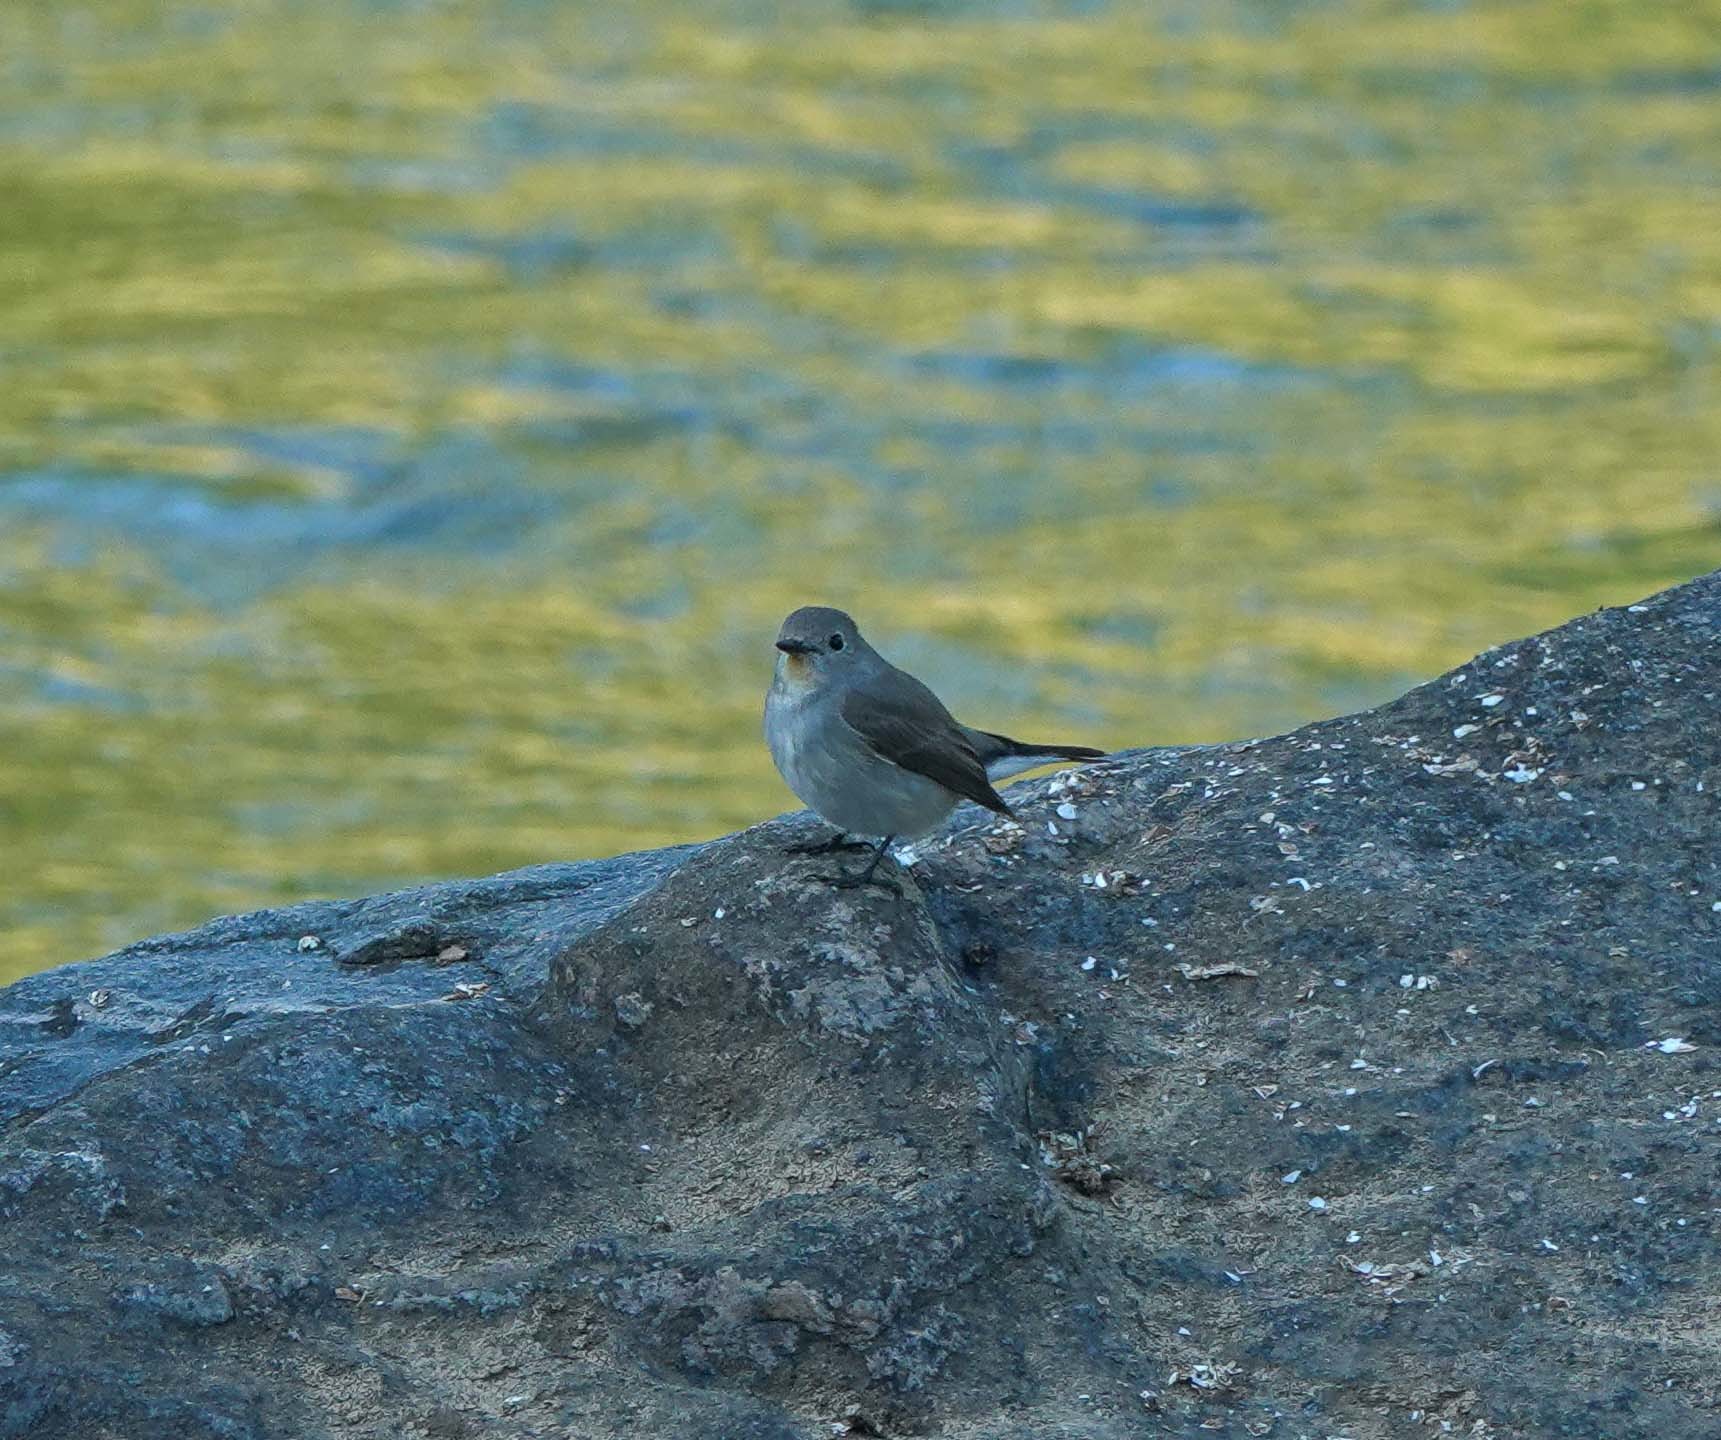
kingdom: Animalia
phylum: Chordata
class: Aves
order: Passeriformes
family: Muscicapidae
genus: Ficedula
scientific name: Ficedula albicilla
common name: Taiga flycatcher
